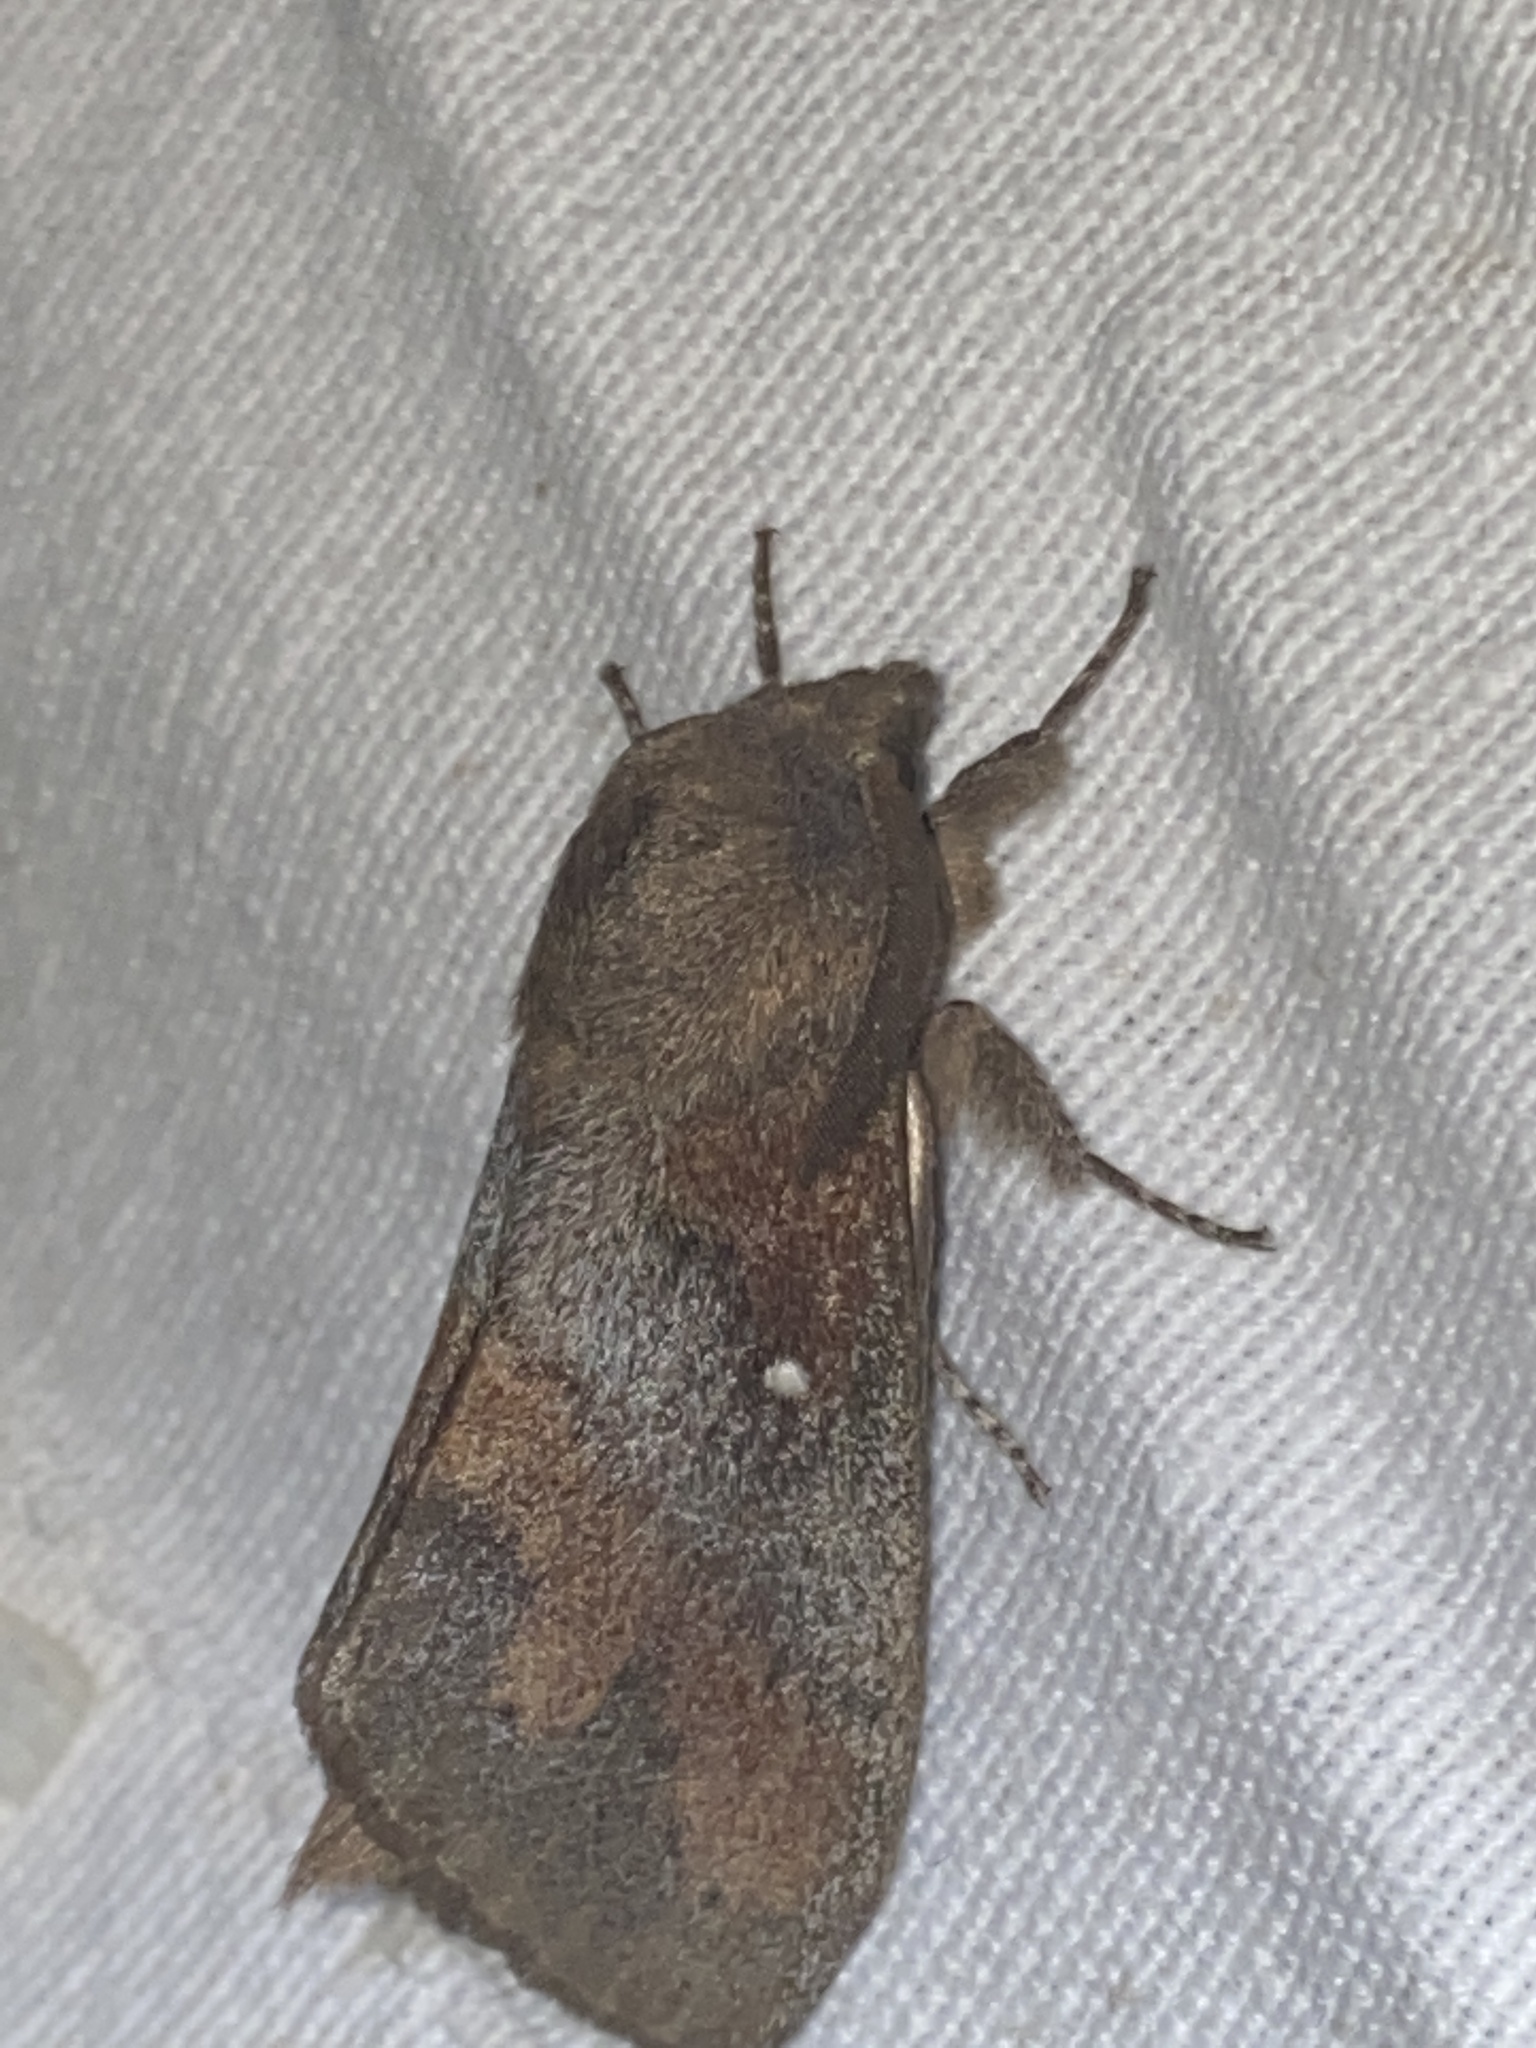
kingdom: Animalia
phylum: Arthropoda
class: Insecta
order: Lepidoptera
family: Lasiocampidae
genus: Dendrolimus
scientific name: Dendrolimus pini
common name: Pine-tree lappet
